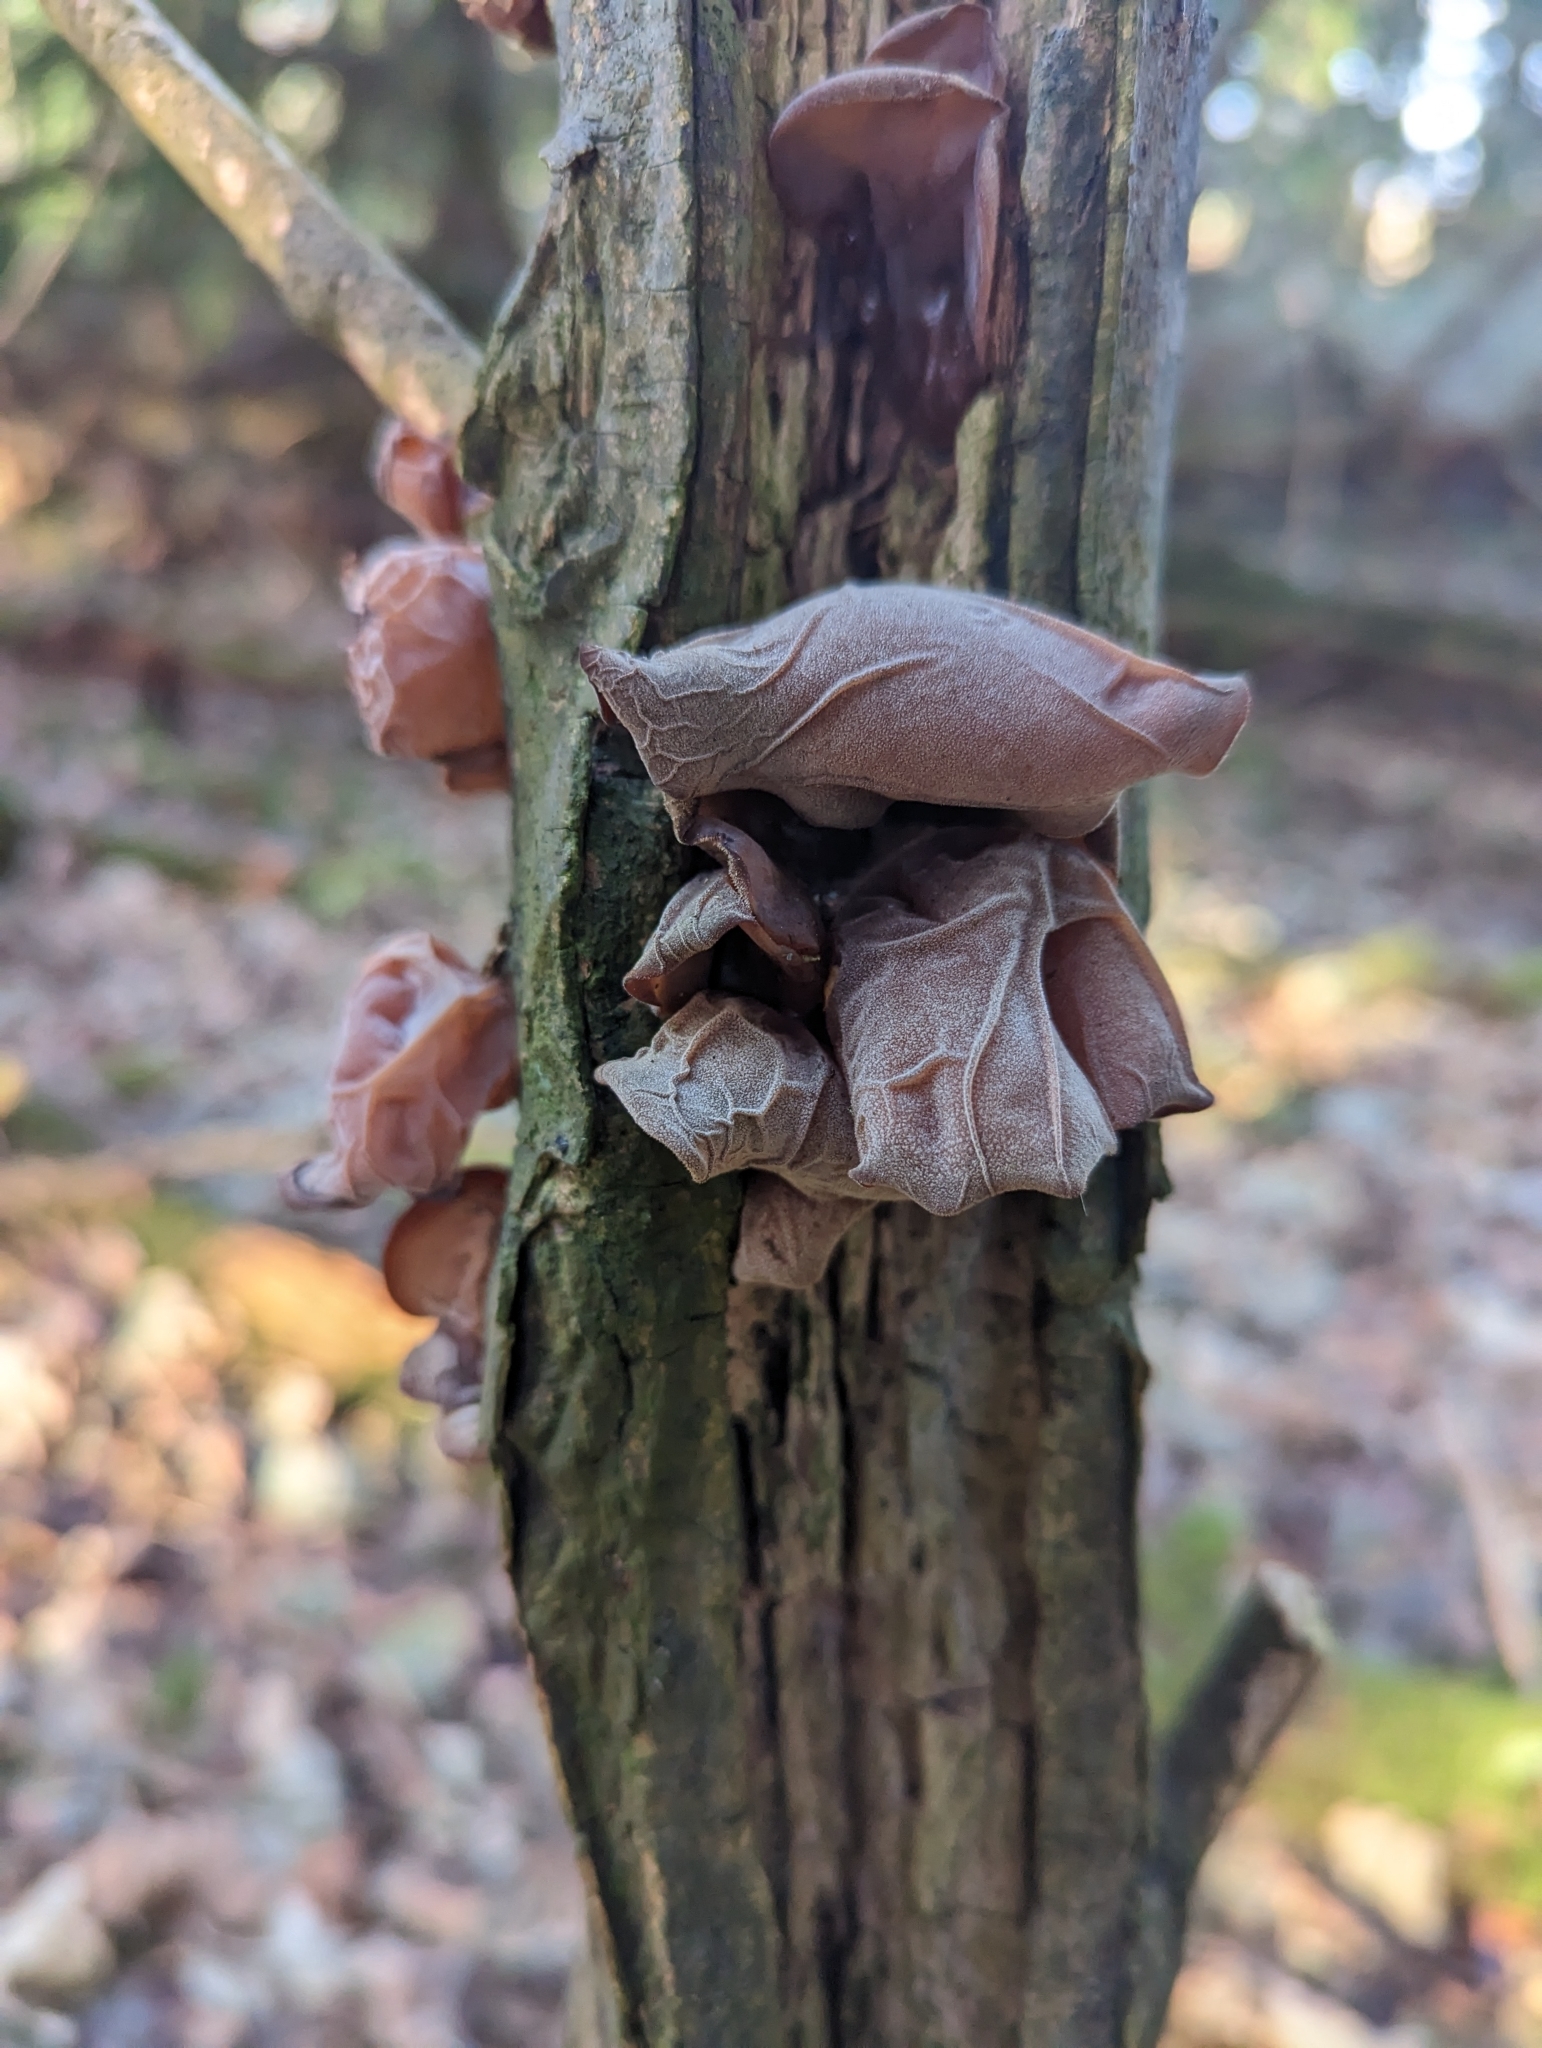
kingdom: Fungi
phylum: Basidiomycota
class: Agaricomycetes
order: Auriculariales
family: Auriculariaceae
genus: Auricularia
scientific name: Auricularia auricula-judae
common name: Jelly ear
